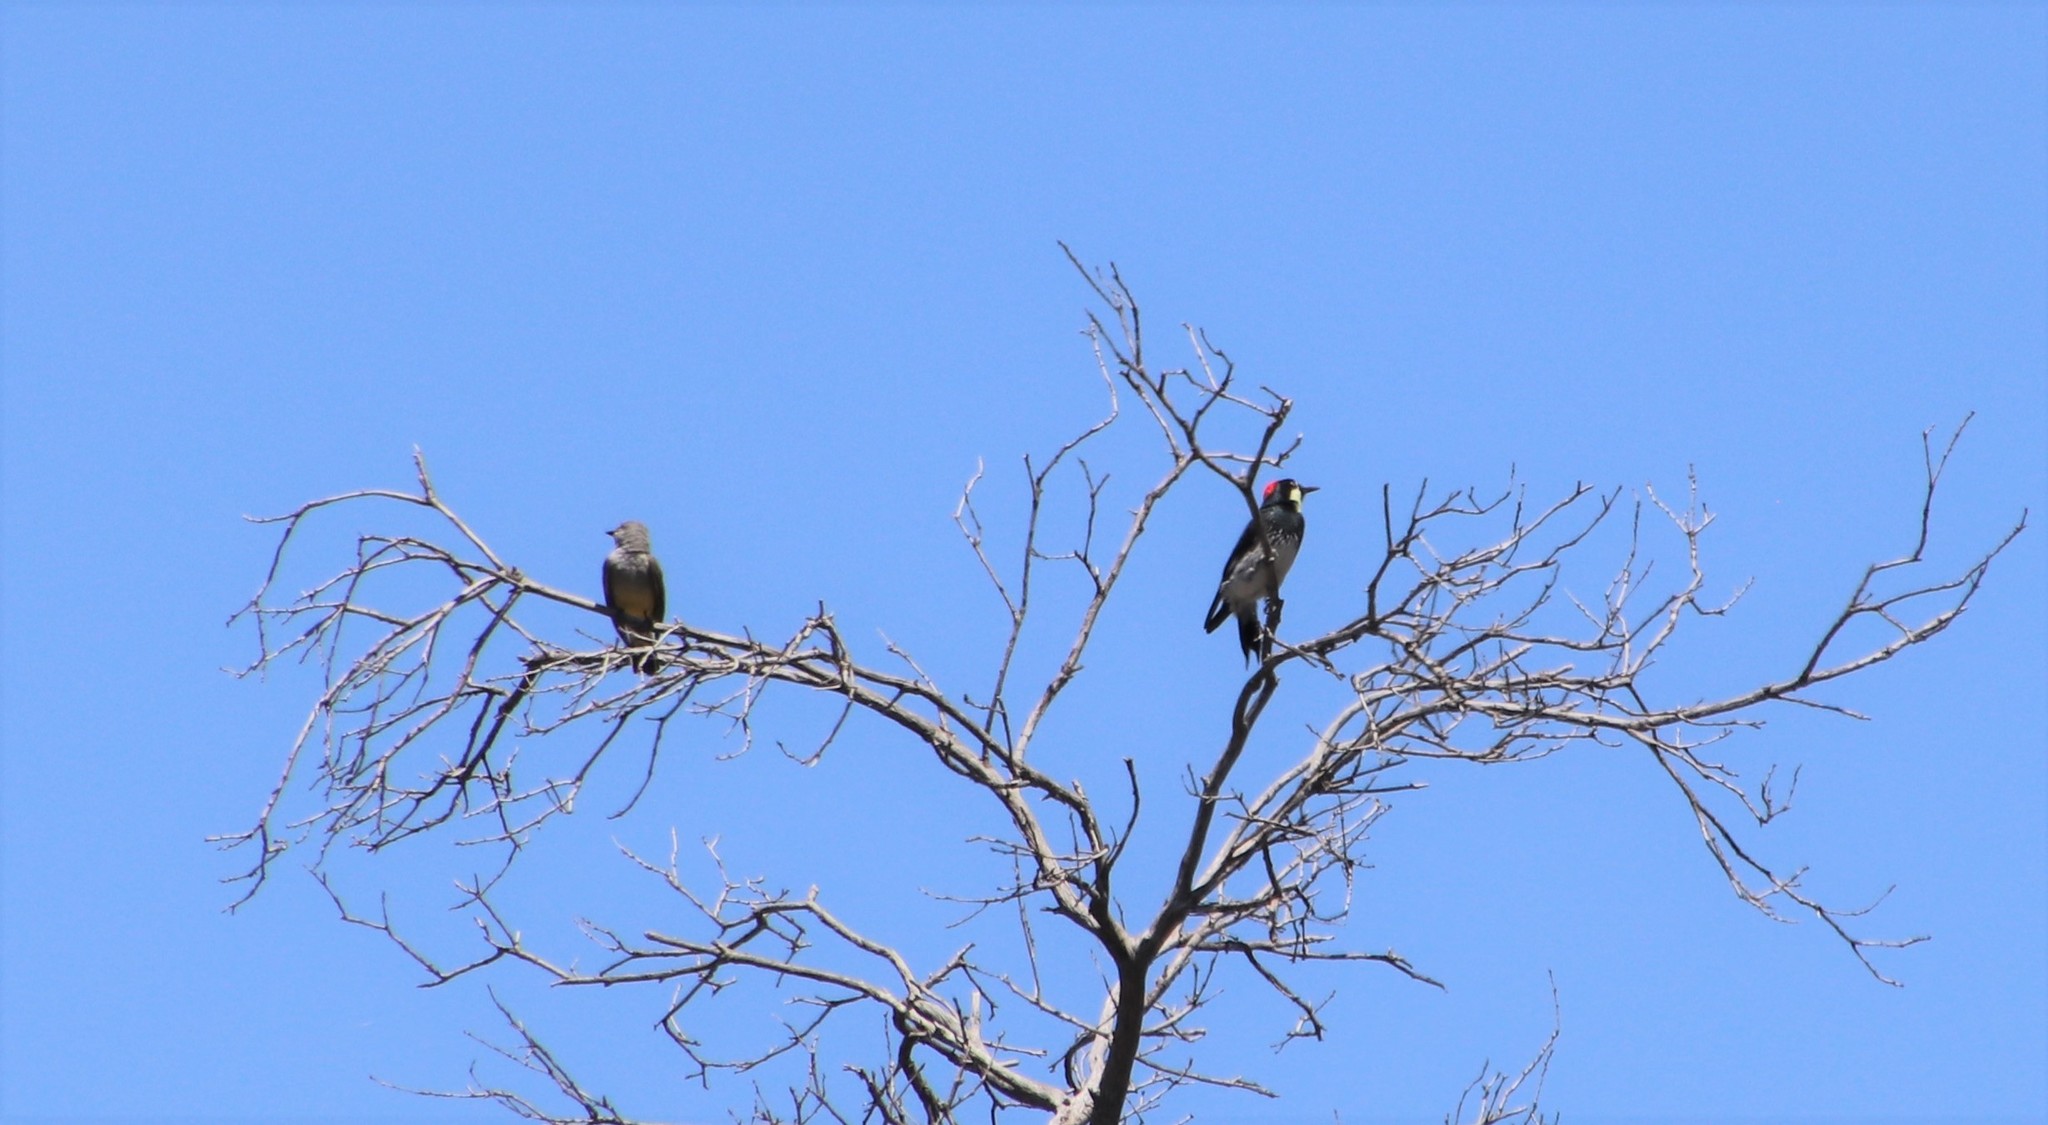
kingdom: Animalia
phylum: Chordata
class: Aves
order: Piciformes
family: Picidae
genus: Melanerpes
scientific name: Melanerpes formicivorus
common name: Acorn woodpecker
